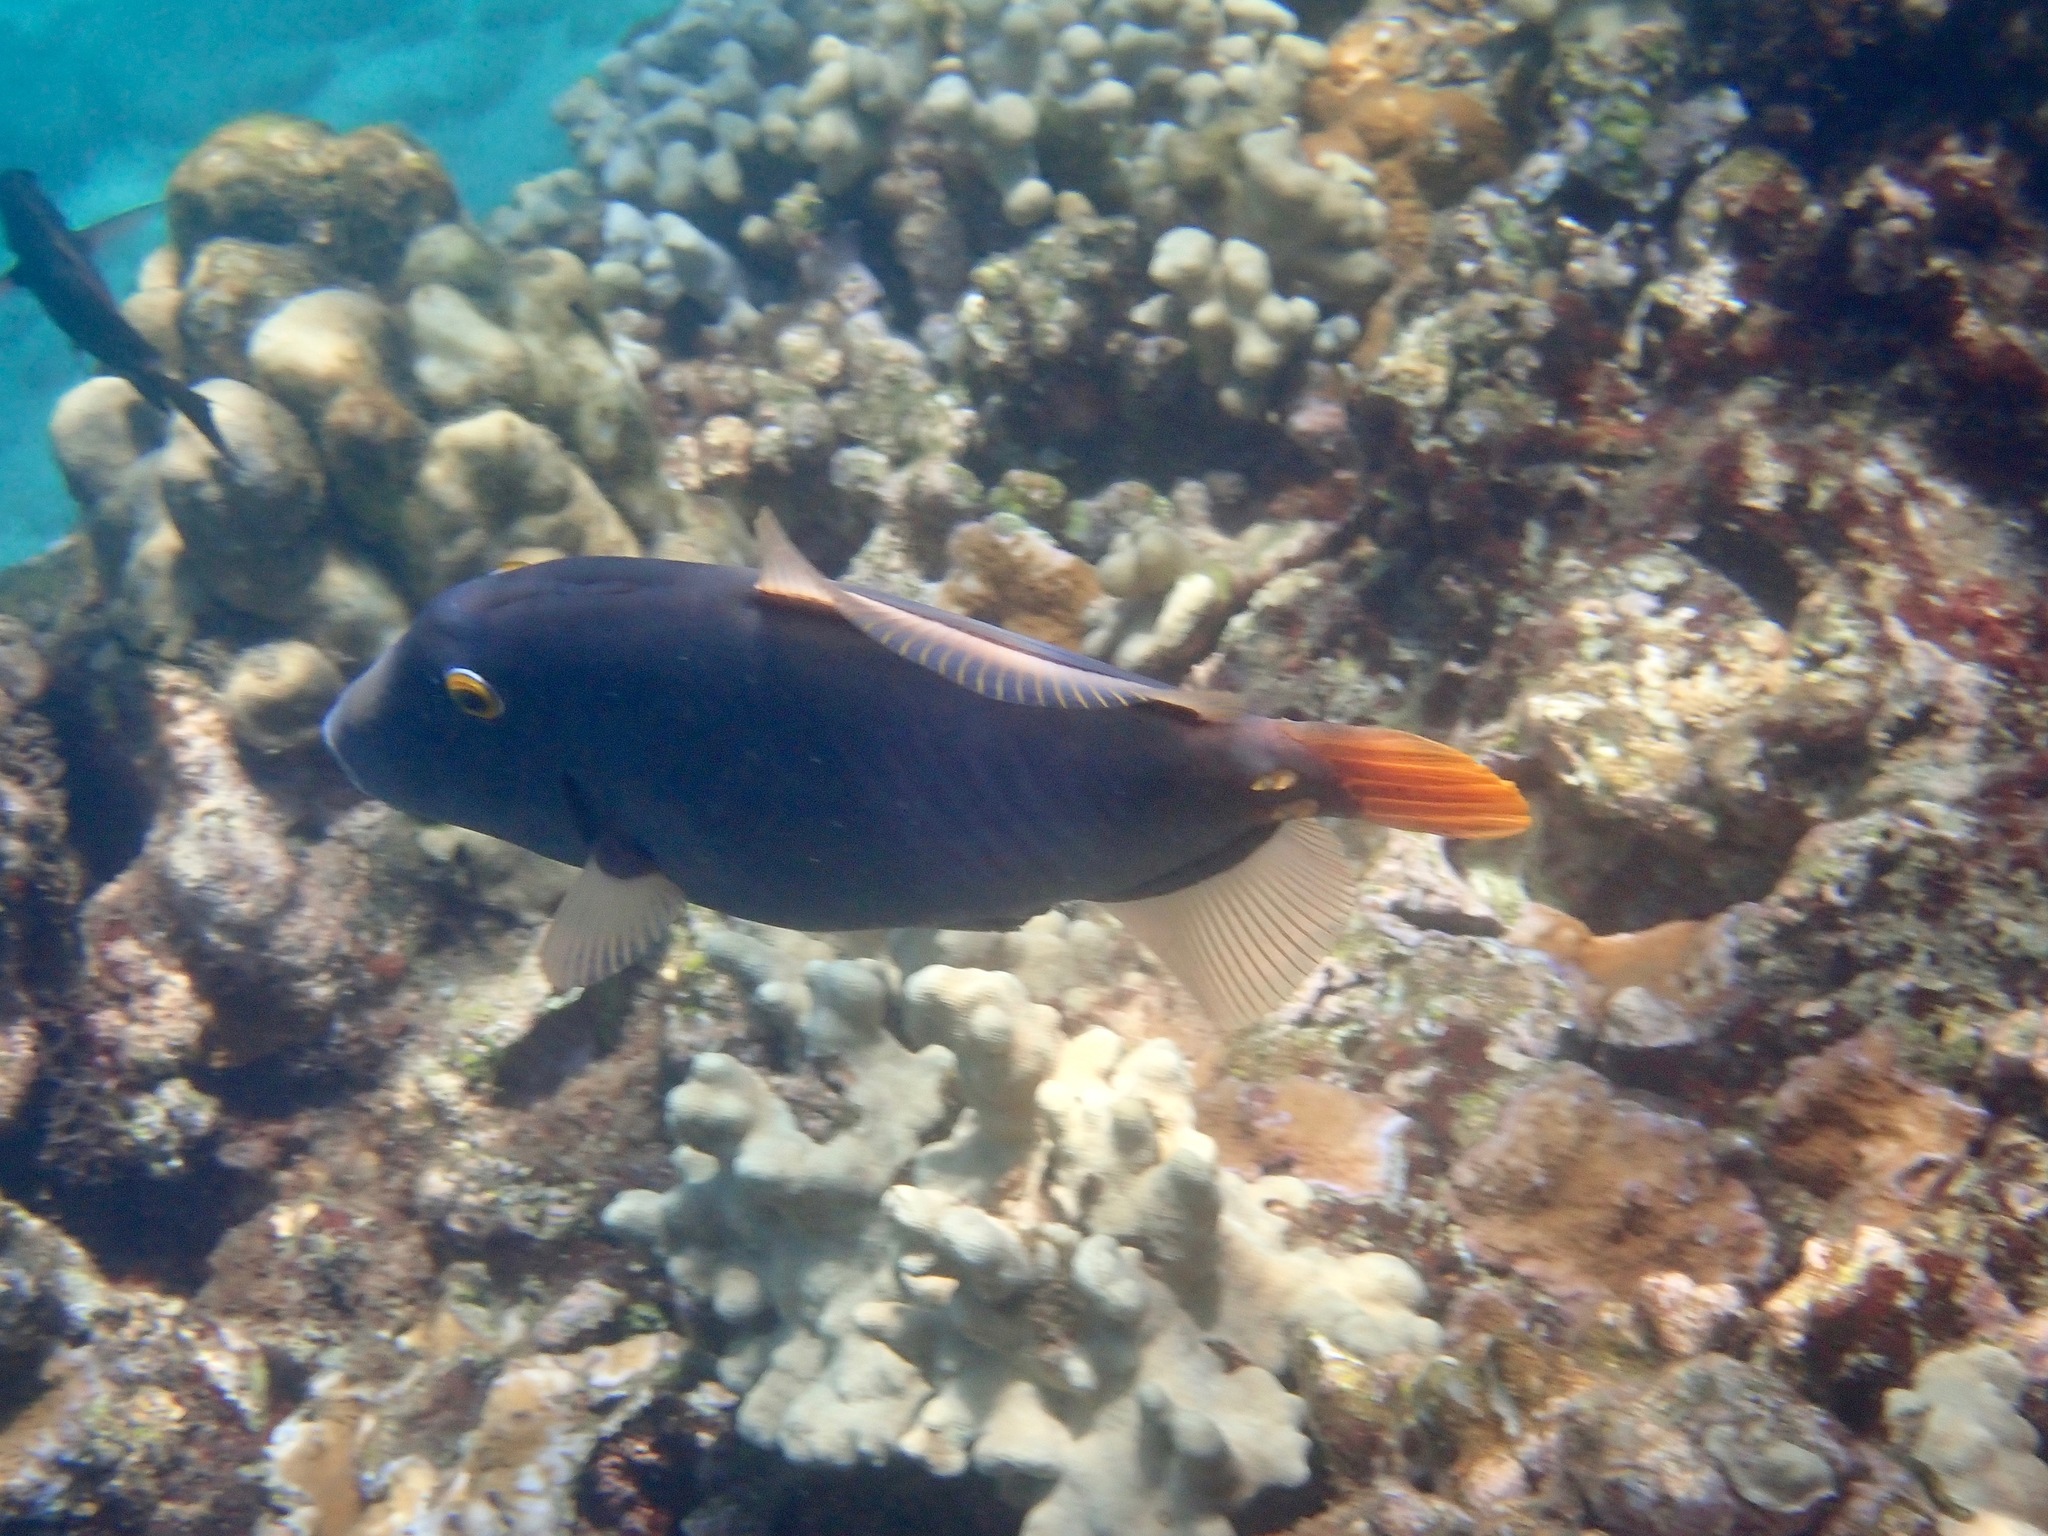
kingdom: Animalia
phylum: Chordata
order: Tetraodontiformes
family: Monacanthidae
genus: Cantherhines
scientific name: Cantherhines dumerilii
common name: Barred filefish
